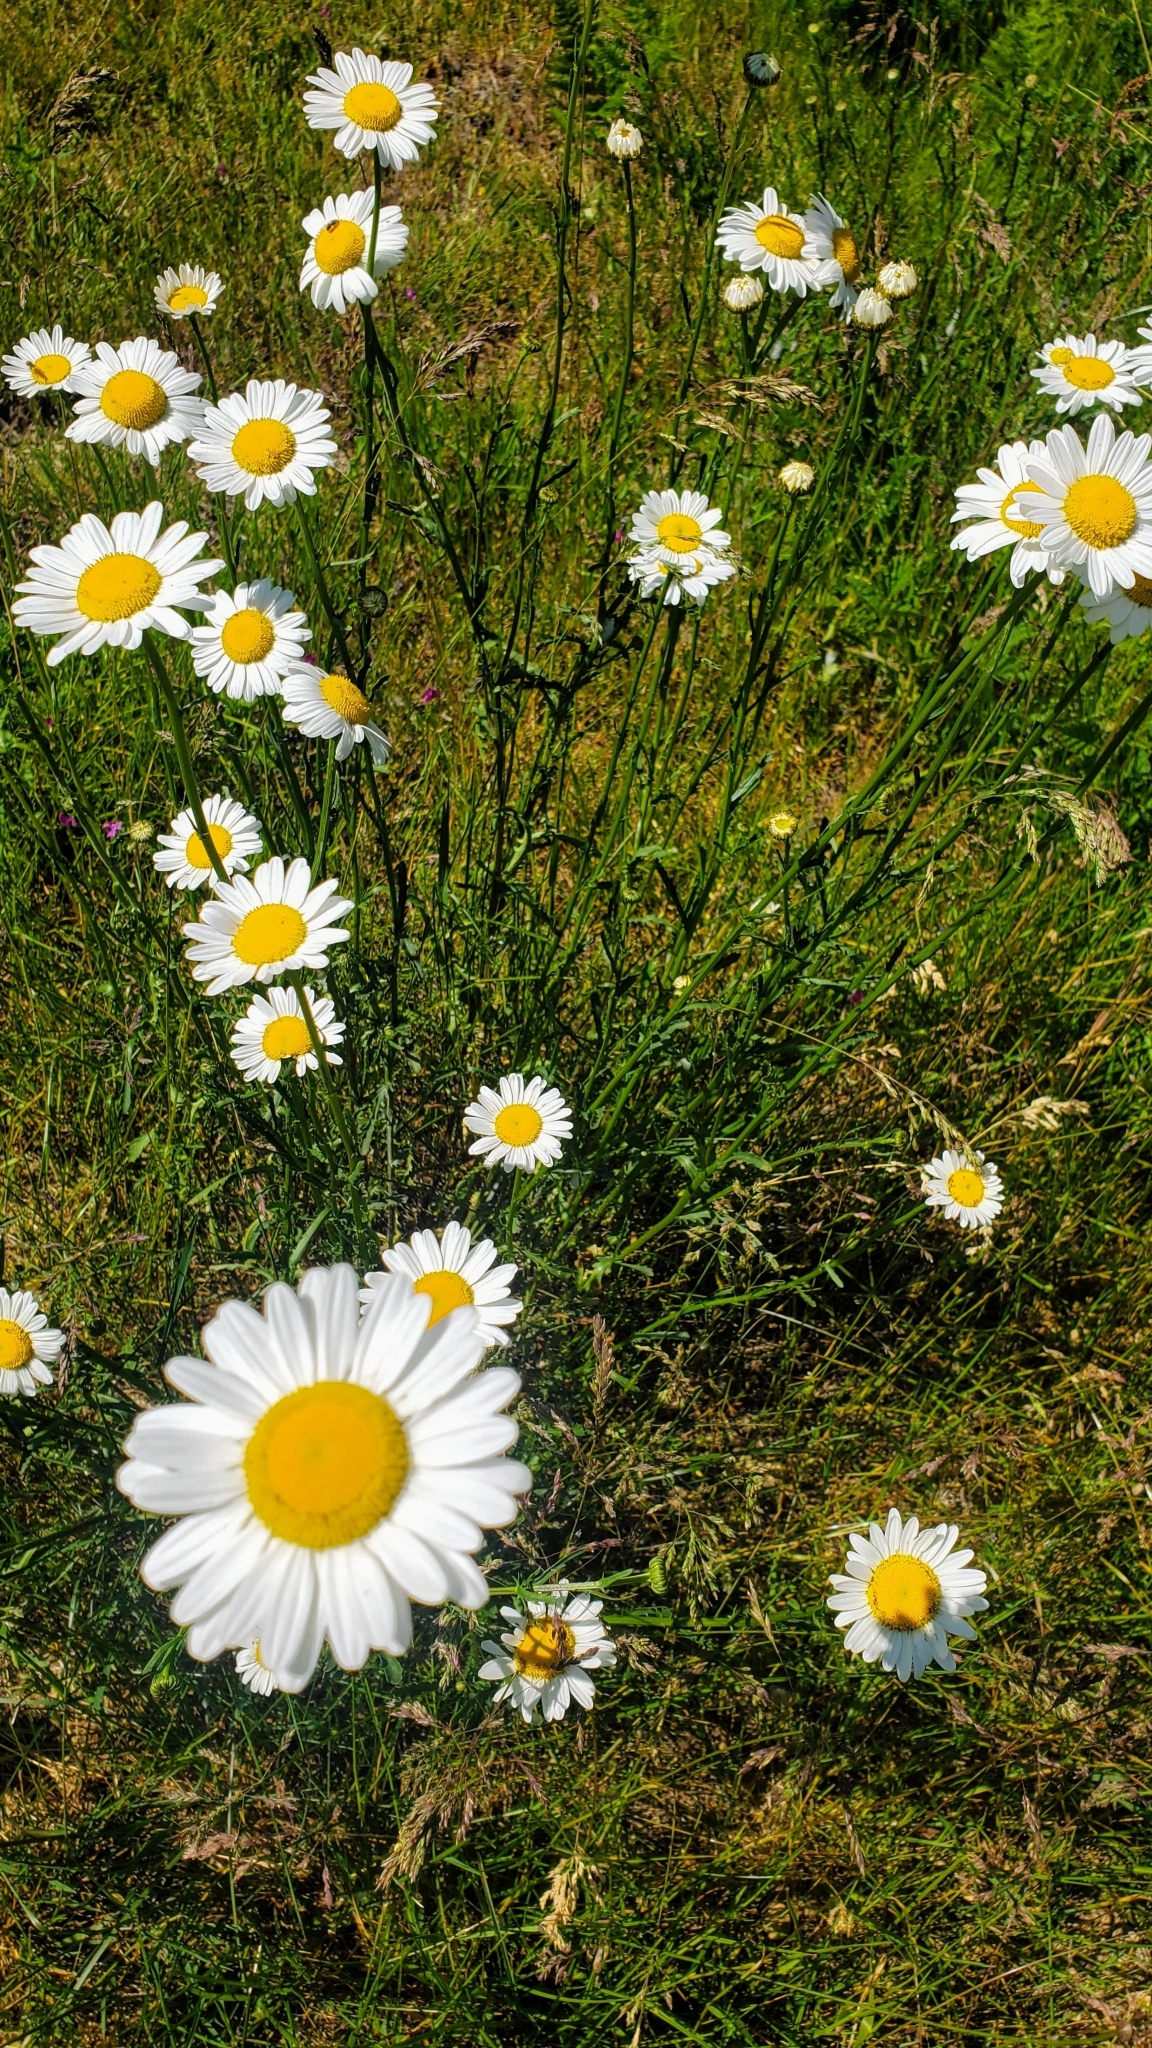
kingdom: Plantae
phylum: Tracheophyta
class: Magnoliopsida
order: Asterales
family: Asteraceae
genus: Leucanthemum
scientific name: Leucanthemum vulgare
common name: Oxeye daisy
